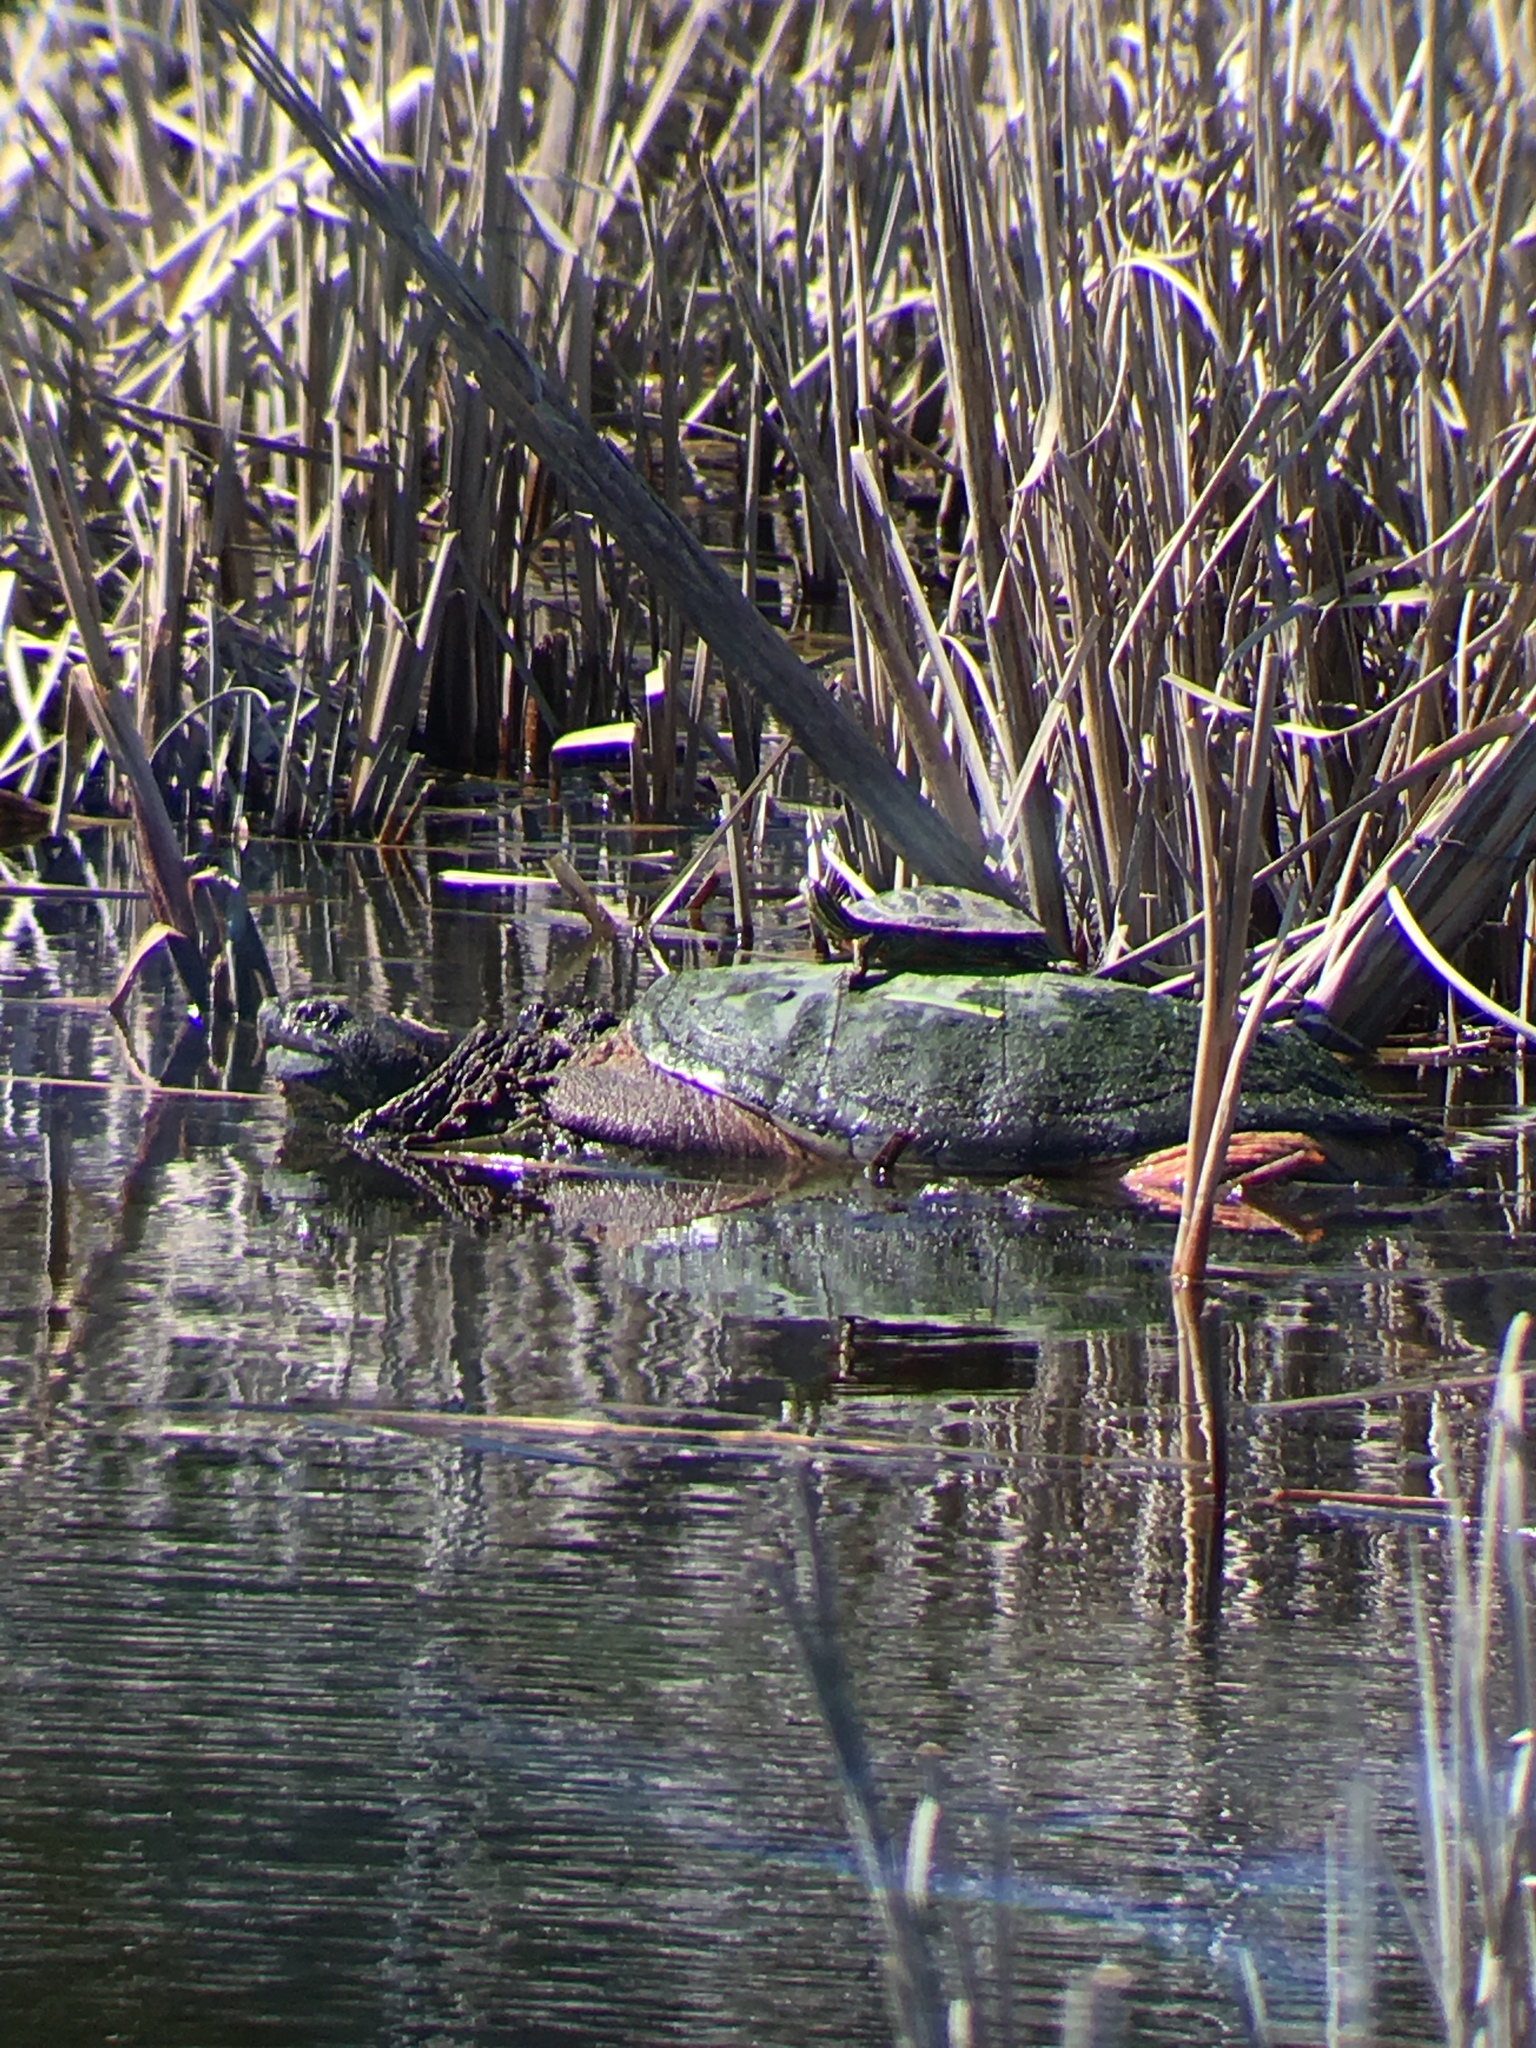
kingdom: Animalia
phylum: Chordata
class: Testudines
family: Chelydridae
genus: Chelydra
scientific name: Chelydra serpentina
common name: Common snapping turtle
